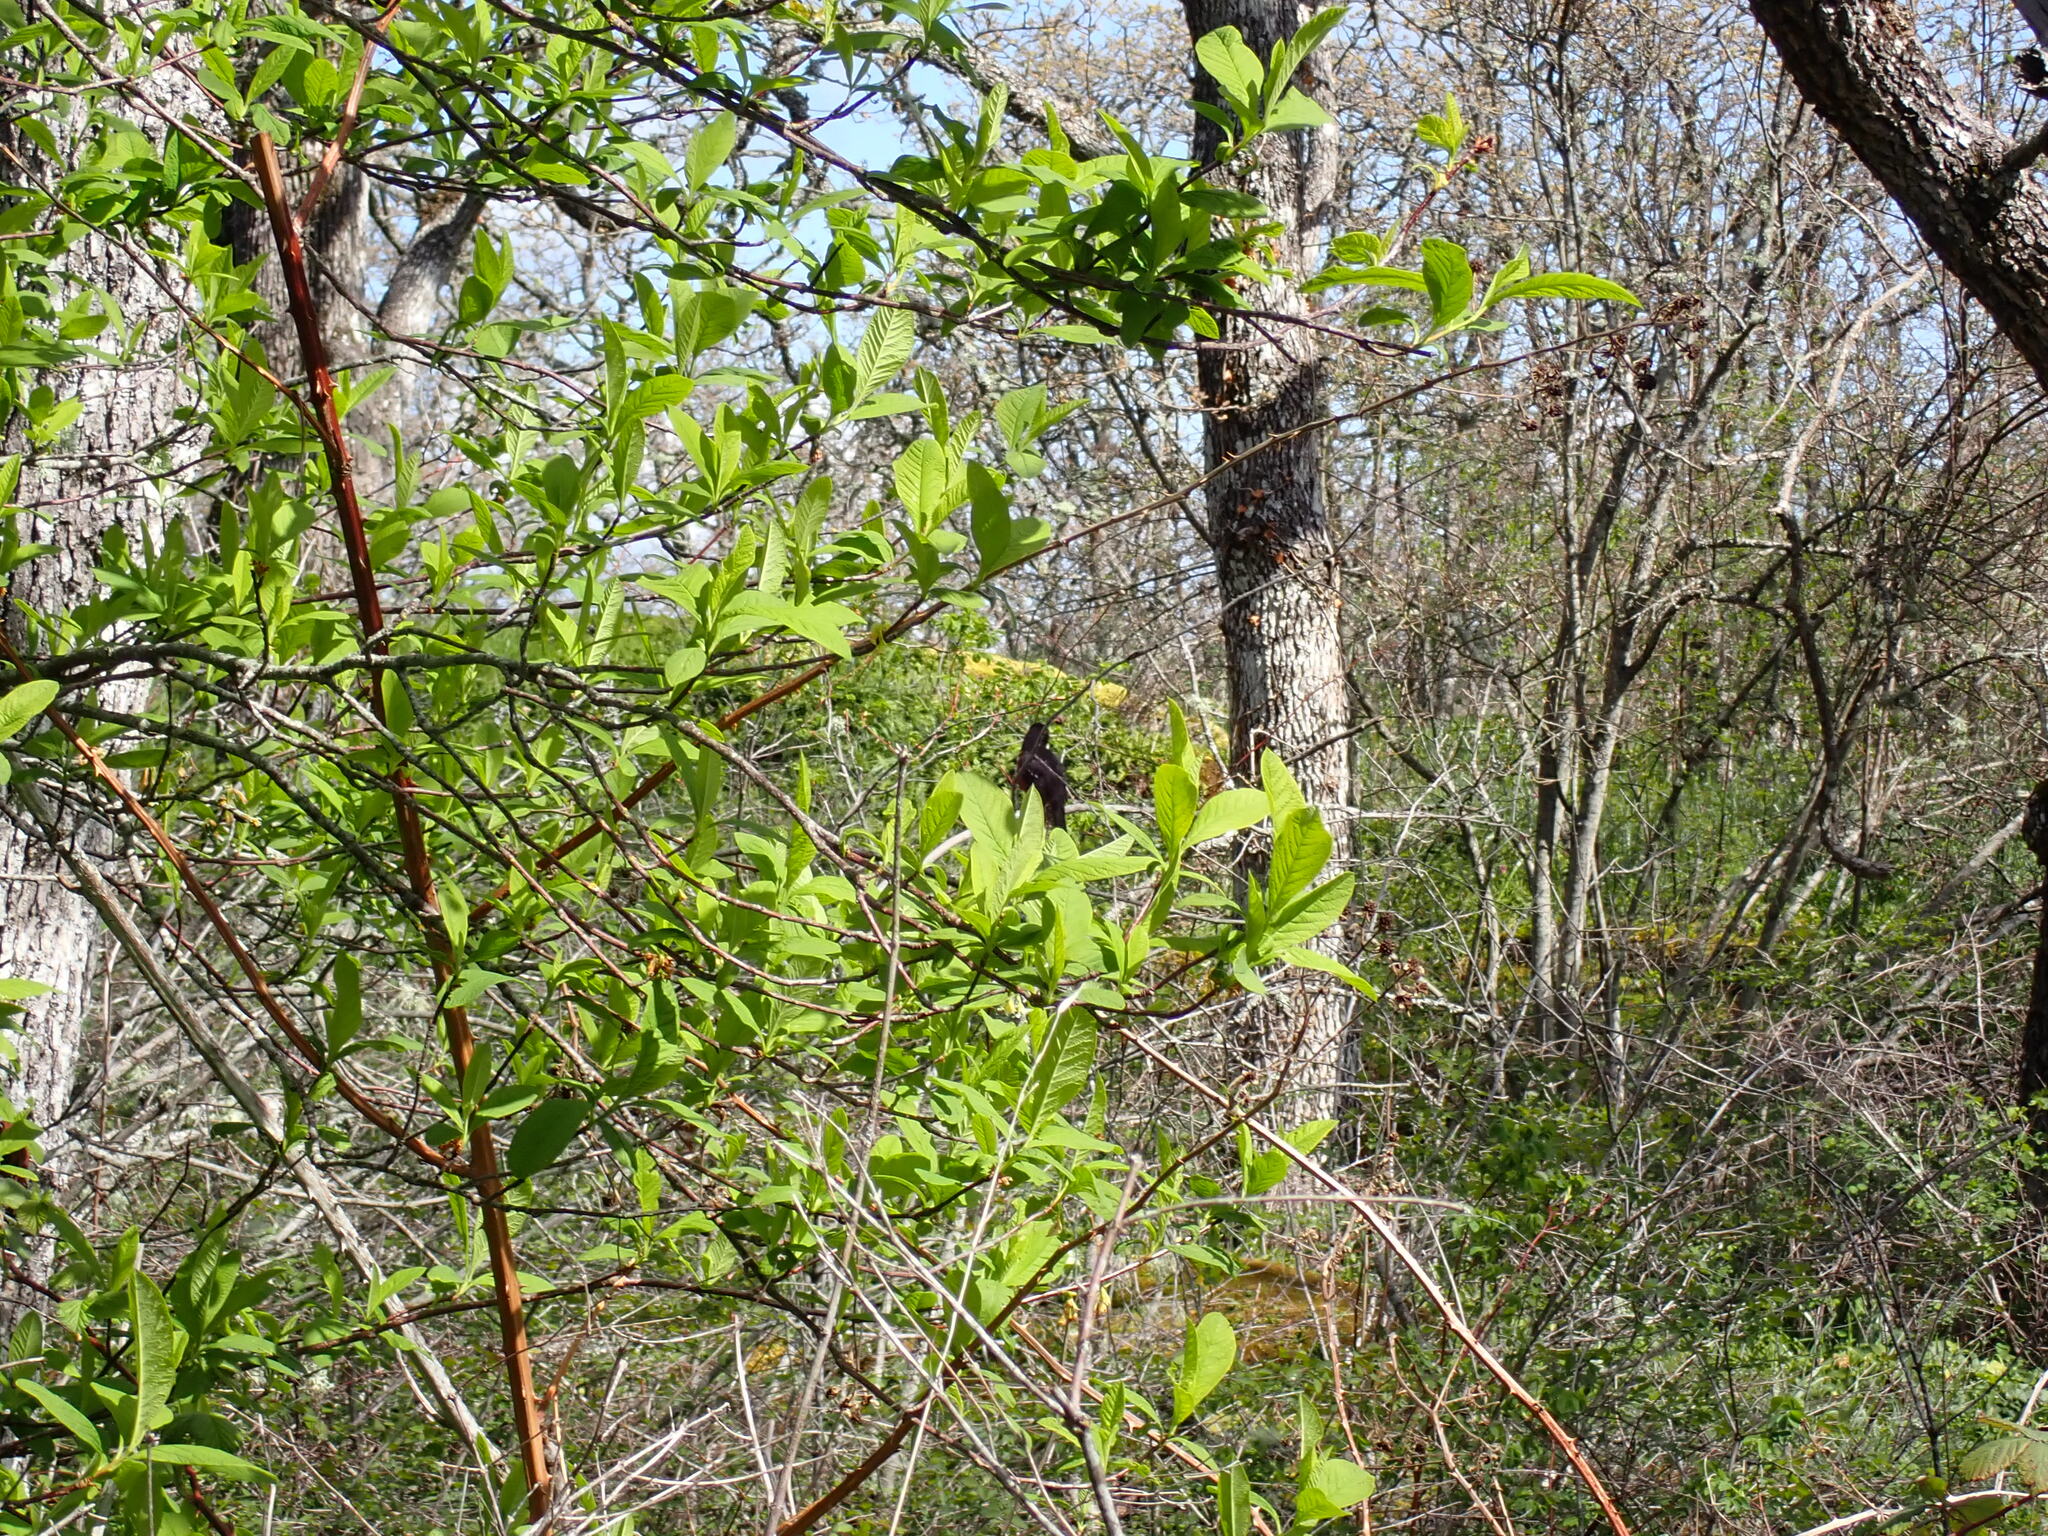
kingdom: Animalia
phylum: Chordata
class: Aves
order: Passeriformes
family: Passerellidae
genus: Pipilo
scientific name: Pipilo maculatus
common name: Spotted towhee
